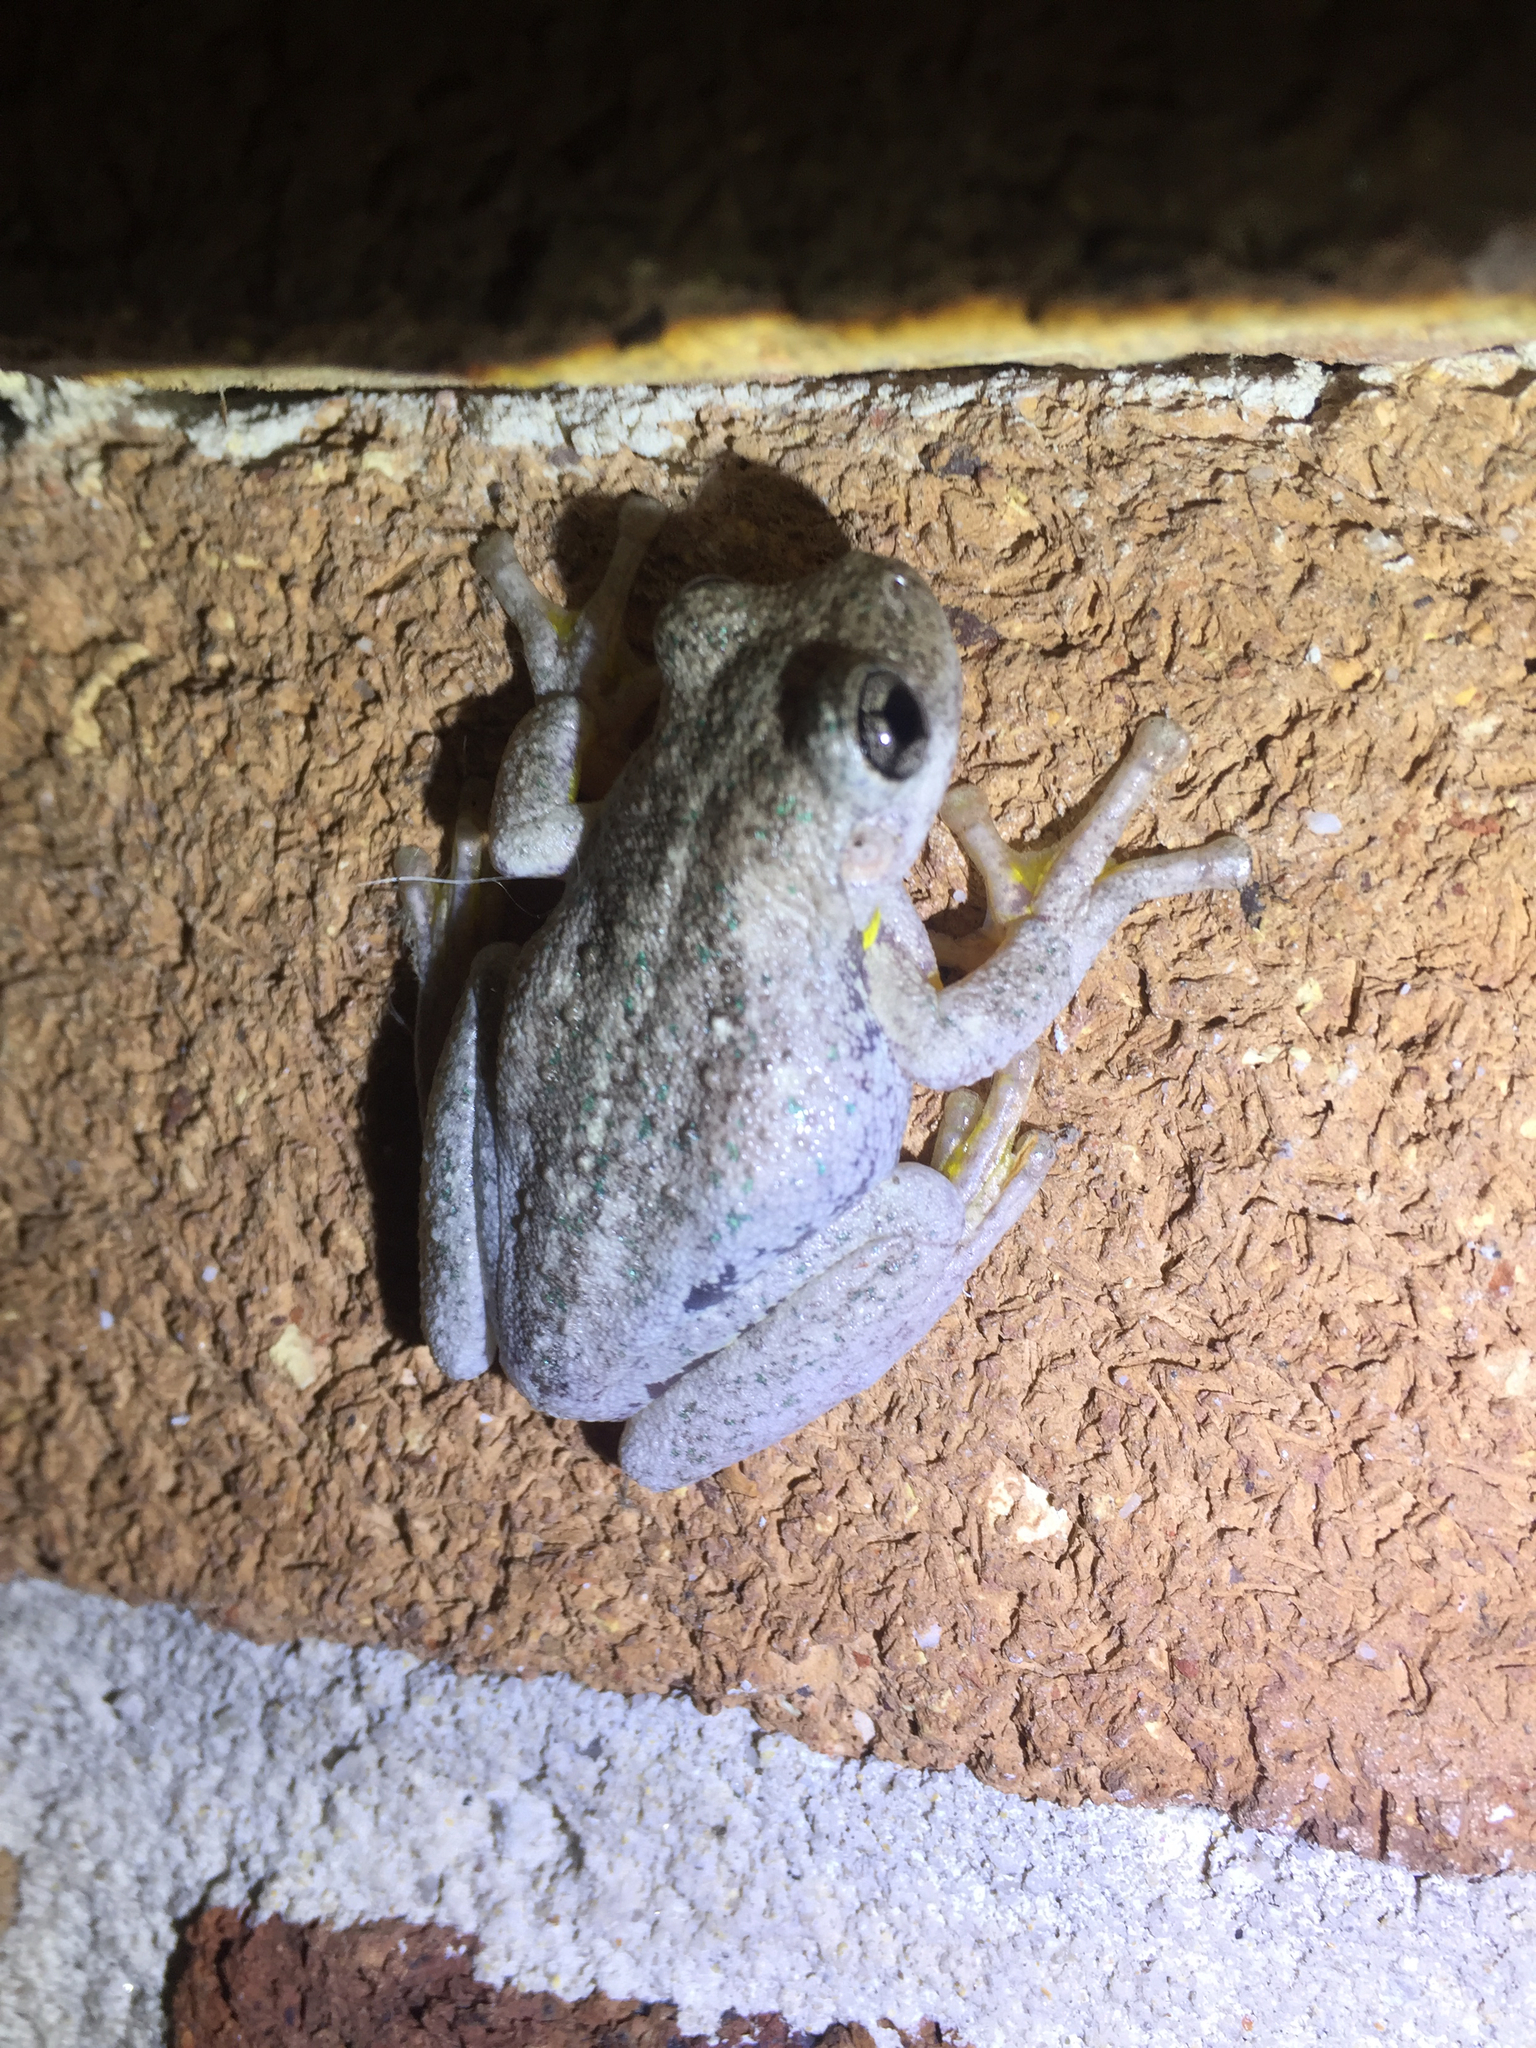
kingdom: Animalia
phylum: Chordata
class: Amphibia
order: Anura
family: Pelodryadidae
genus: Litoria
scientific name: Litoria peronii
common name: Emerald spotted treefrog
